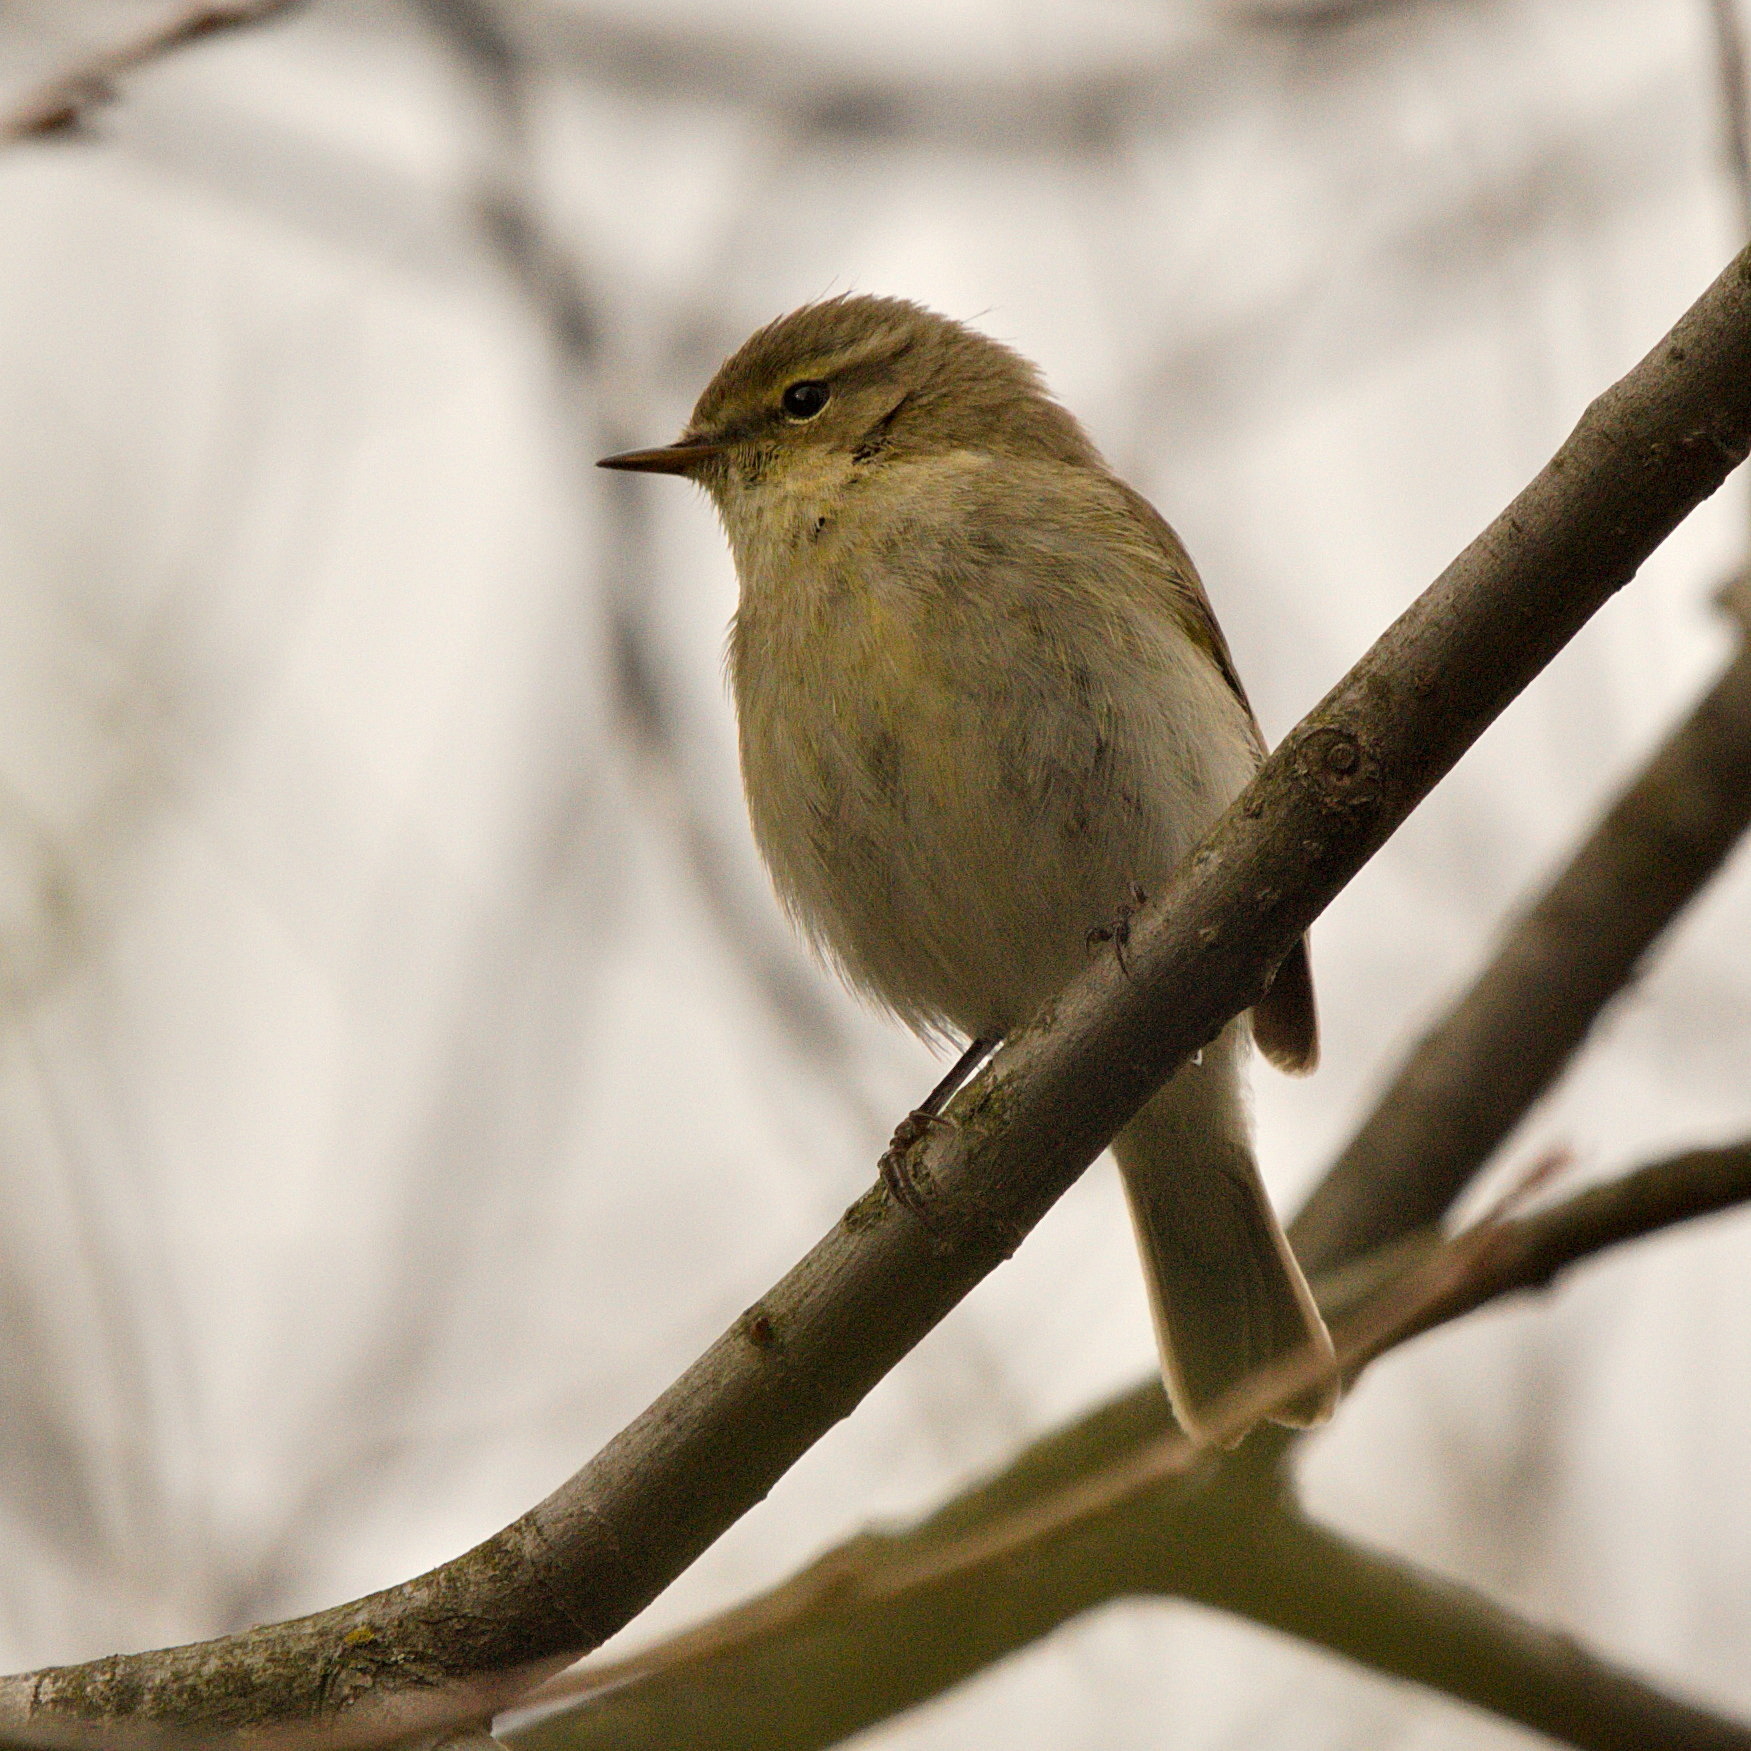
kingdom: Animalia
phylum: Chordata
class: Aves
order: Passeriformes
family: Phylloscopidae
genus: Phylloscopus
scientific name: Phylloscopus collybita
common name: Common chiffchaff
